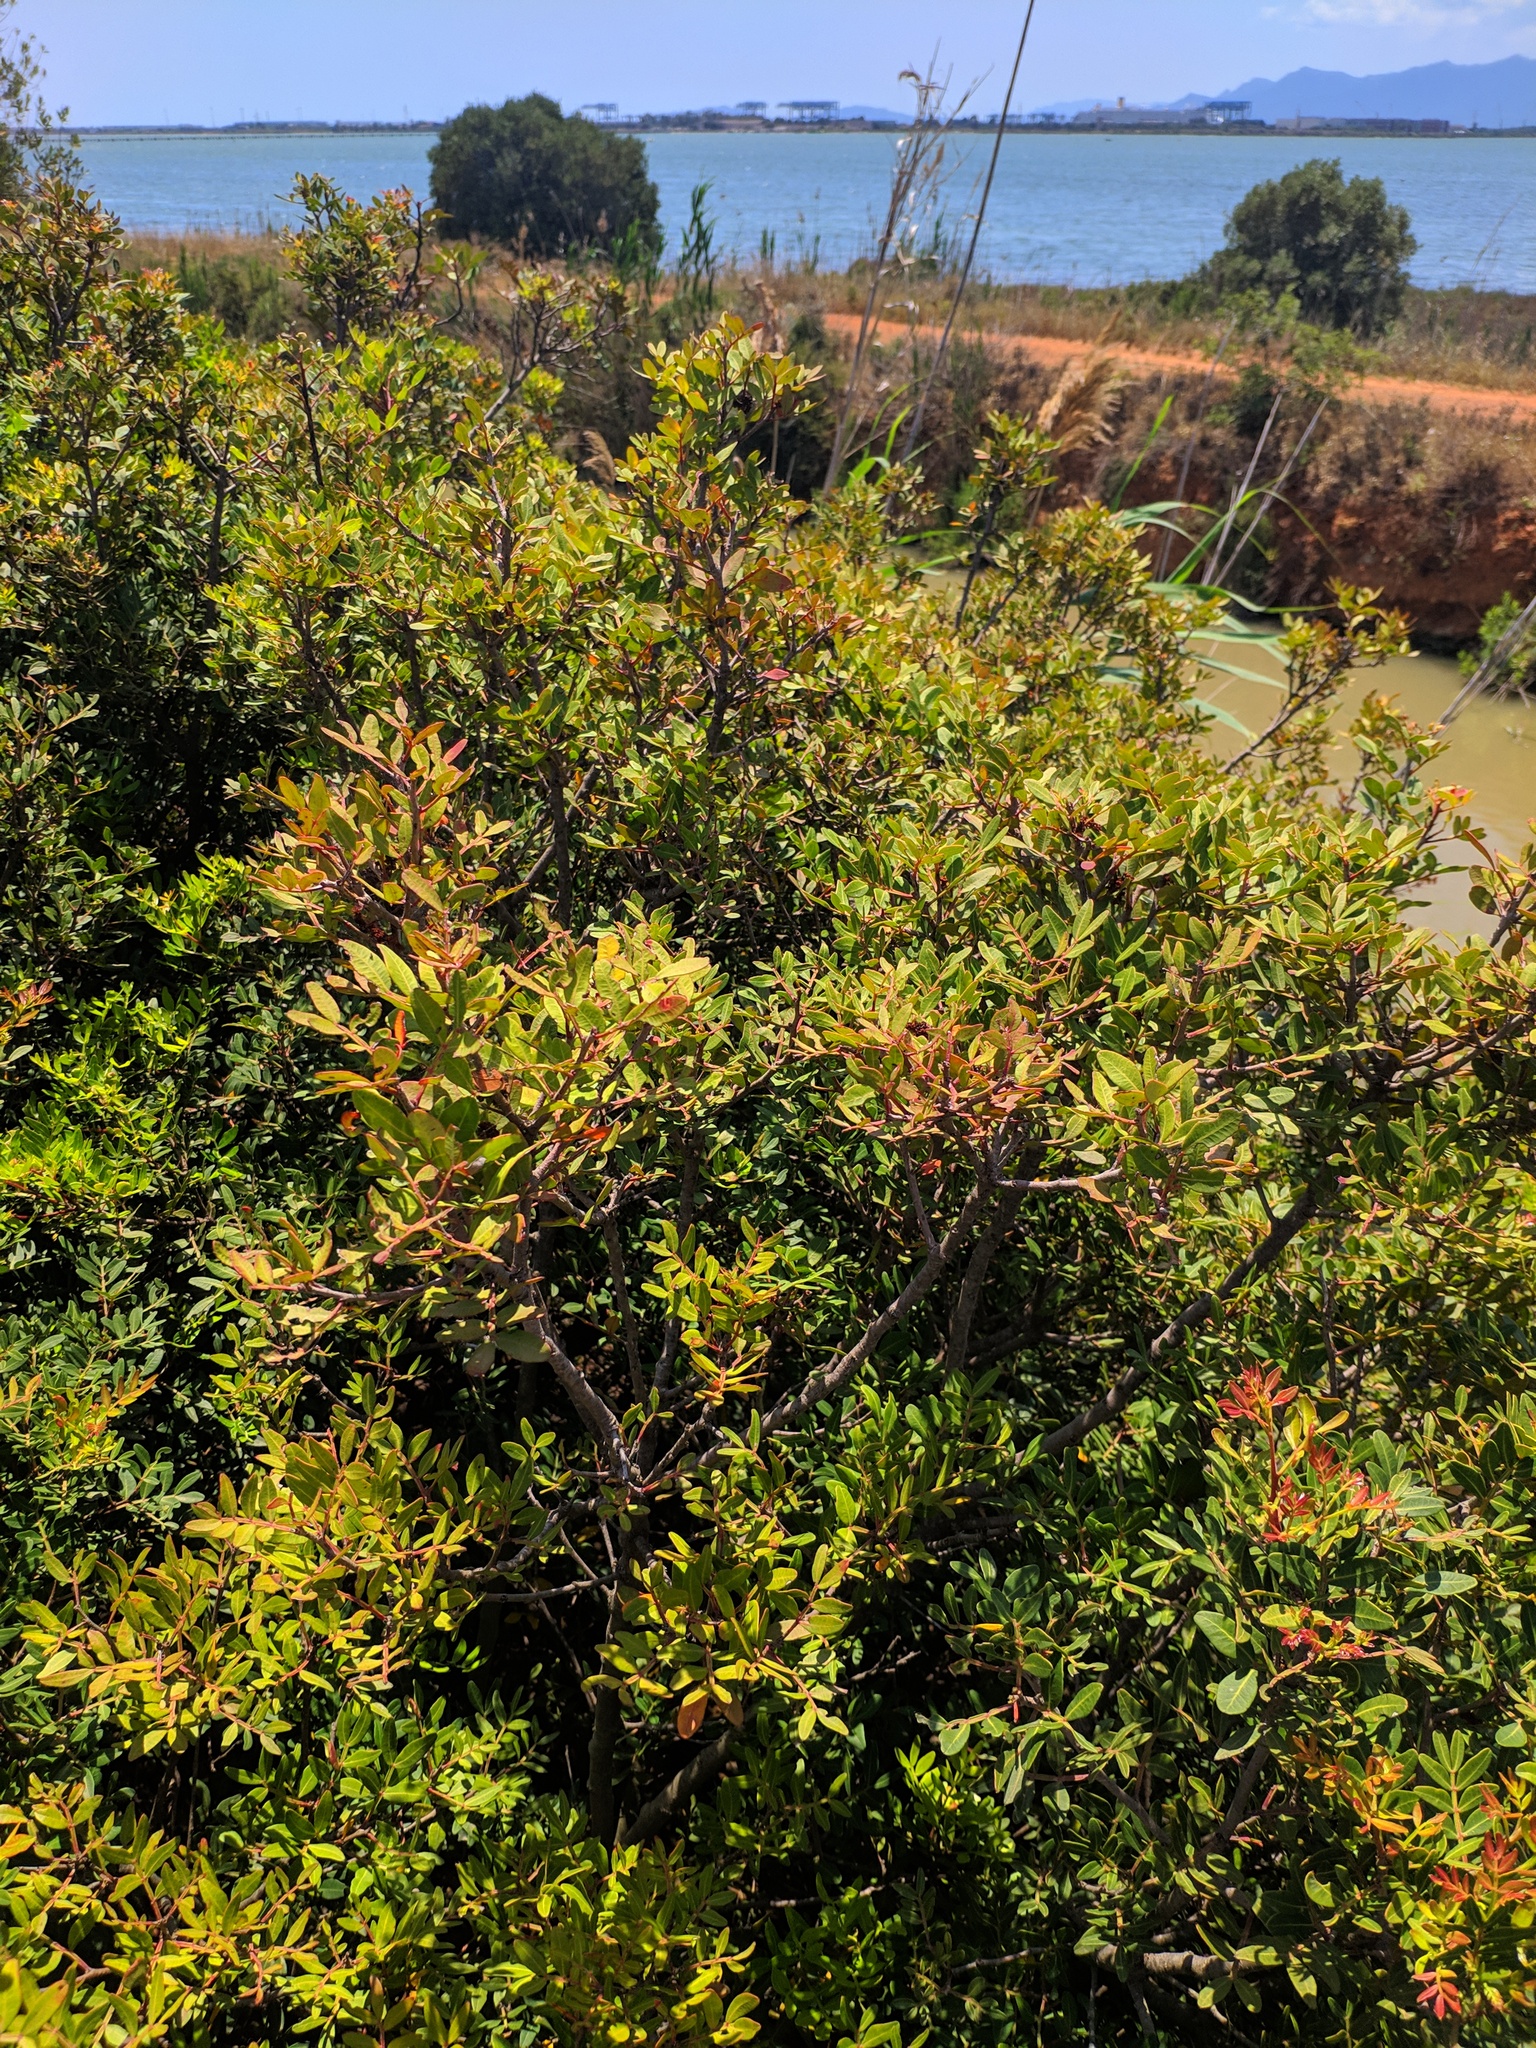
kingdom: Plantae
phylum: Tracheophyta
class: Magnoliopsida
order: Sapindales
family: Anacardiaceae
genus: Pistacia
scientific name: Pistacia lentiscus
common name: Lentisk
